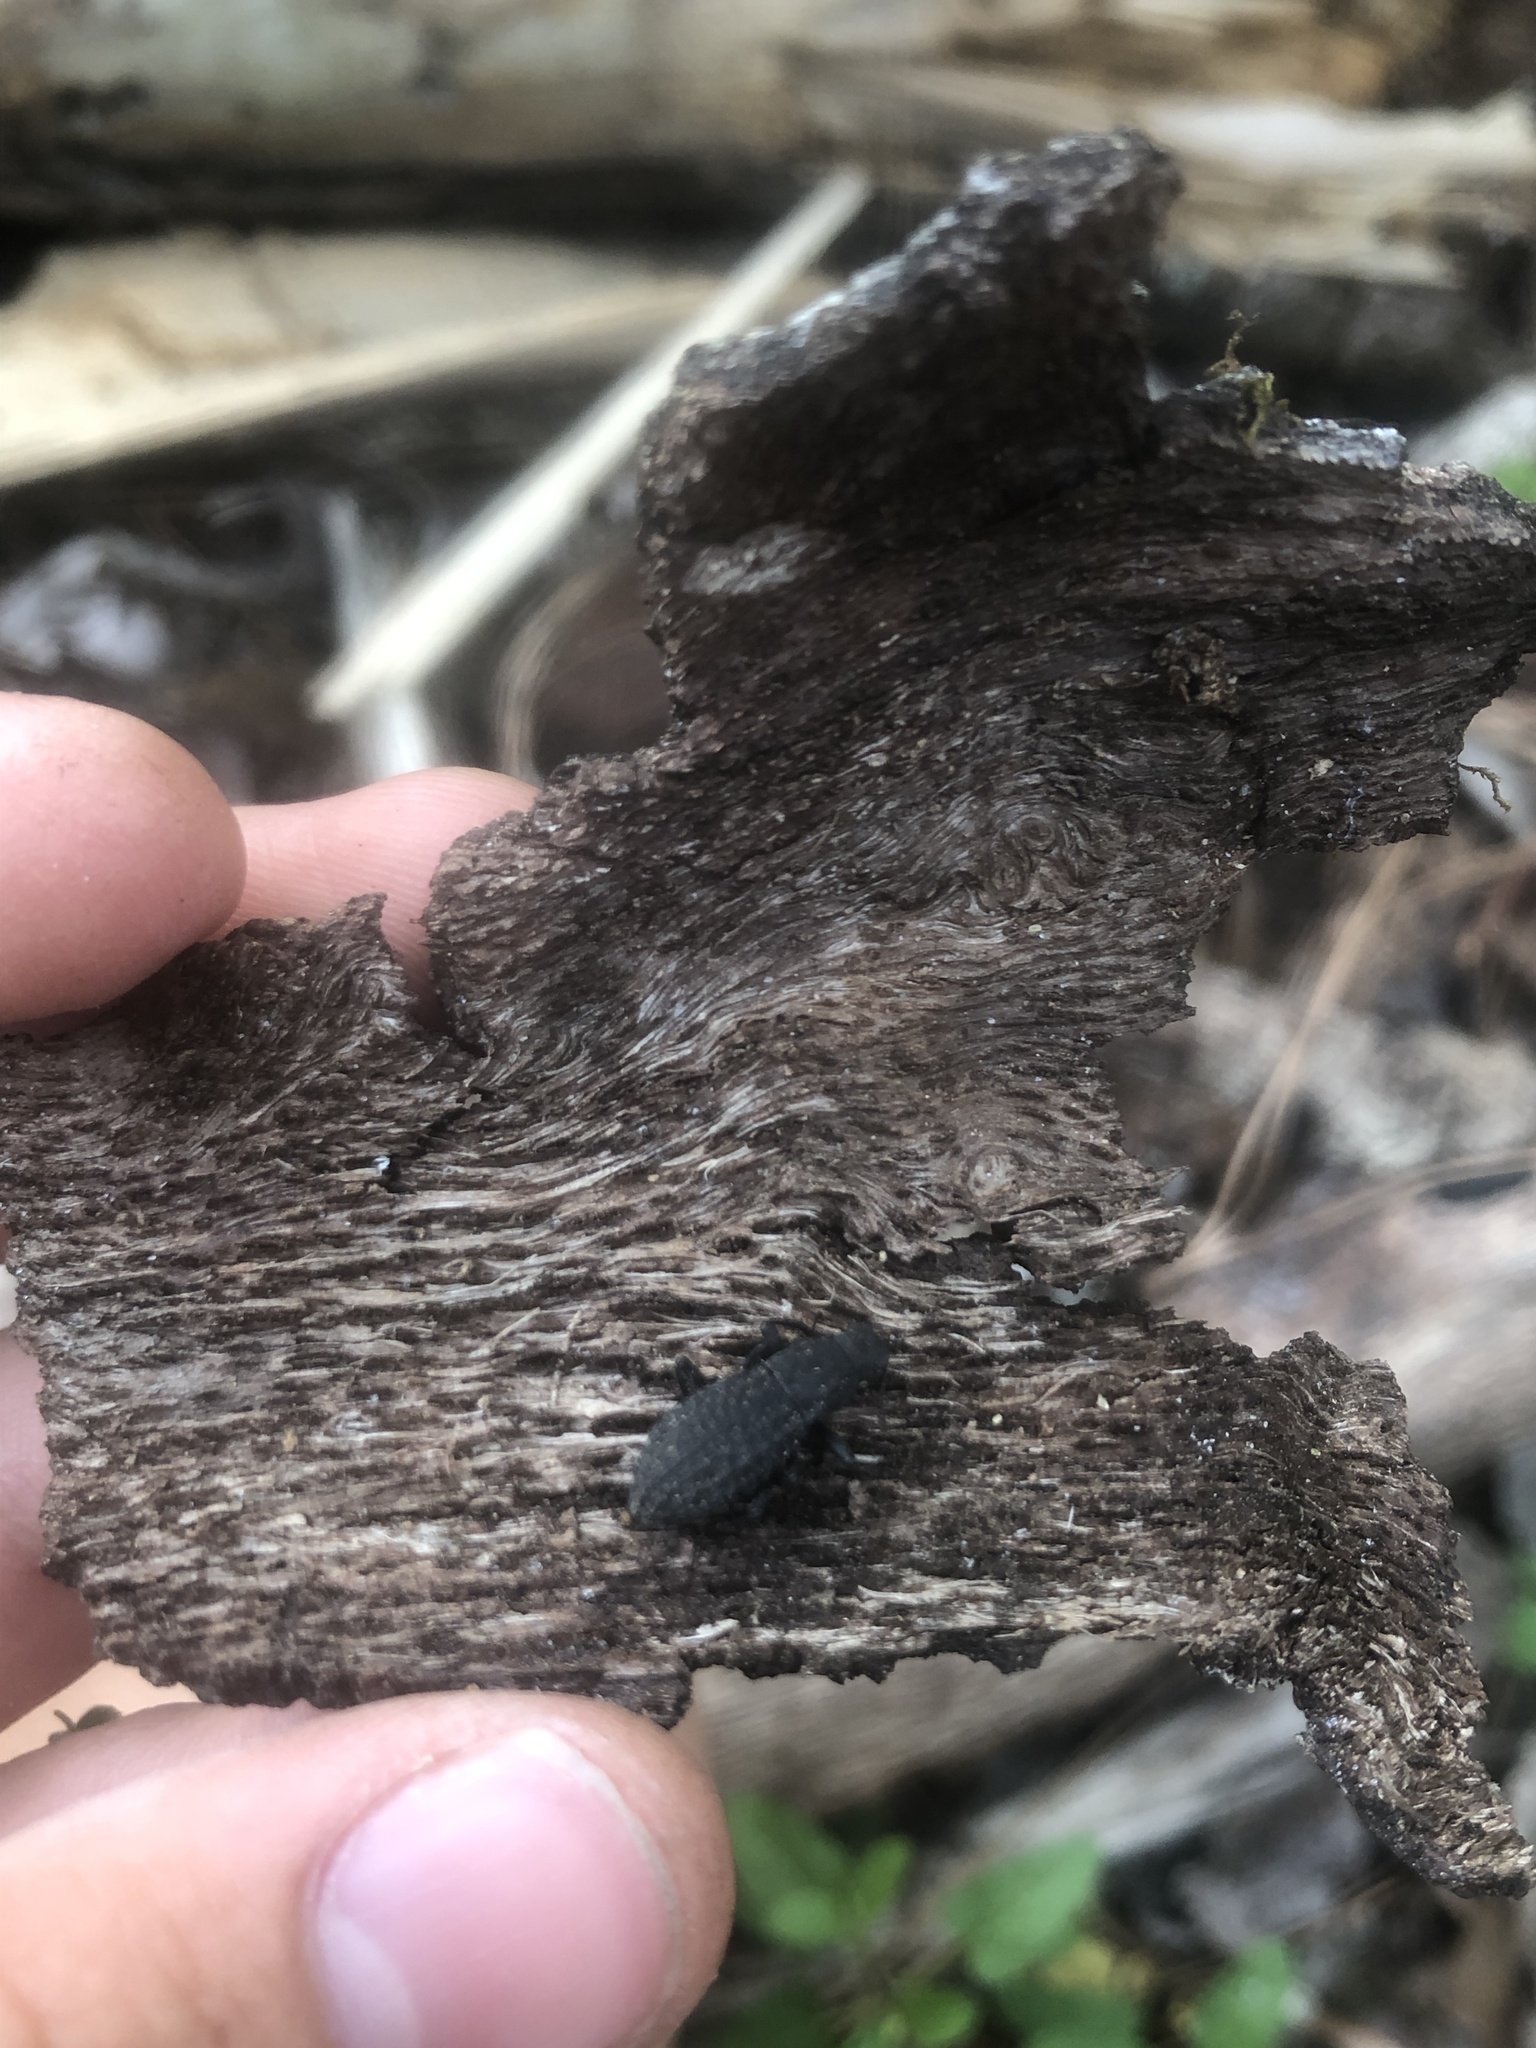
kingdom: Animalia
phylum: Arthropoda
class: Insecta
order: Coleoptera
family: Tenebrionidae
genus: Polypleurus
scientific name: Polypleurus perforatus
